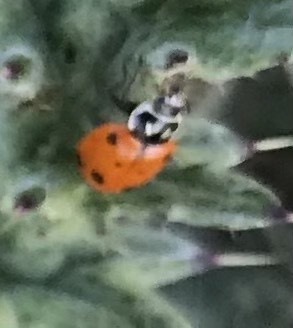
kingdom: Animalia
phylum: Arthropoda
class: Insecta
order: Coleoptera
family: Coccinellidae
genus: Hippodamia
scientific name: Hippodamia convergens
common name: Convergent lady beetle
